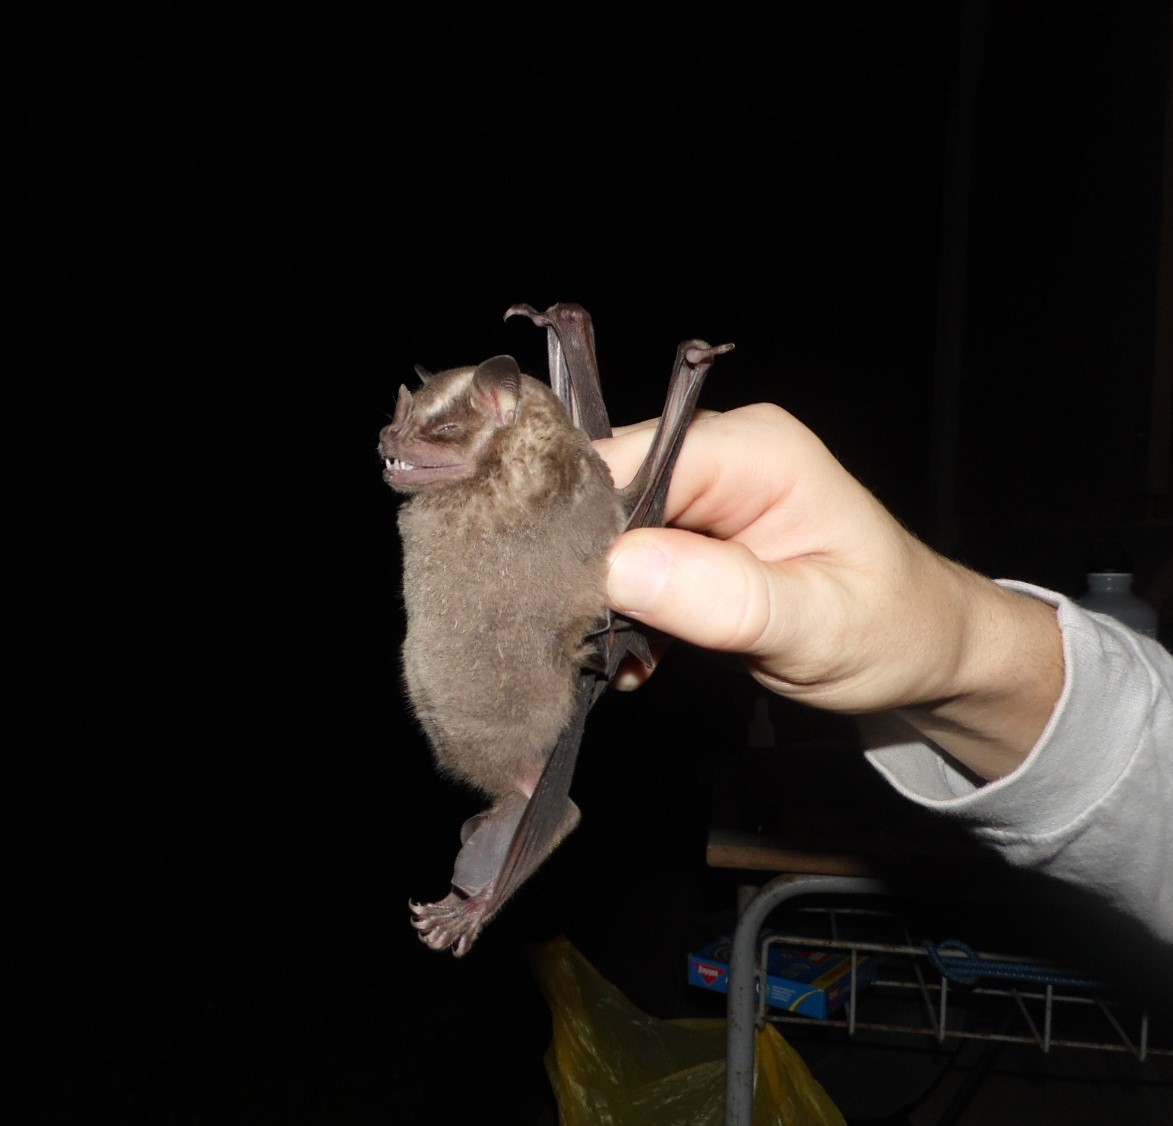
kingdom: Animalia
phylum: Chordata
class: Mammalia
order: Chiroptera
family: Phyllostomidae
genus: Artibeus
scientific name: Artibeus lituratus
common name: Great fruit-eating bat
